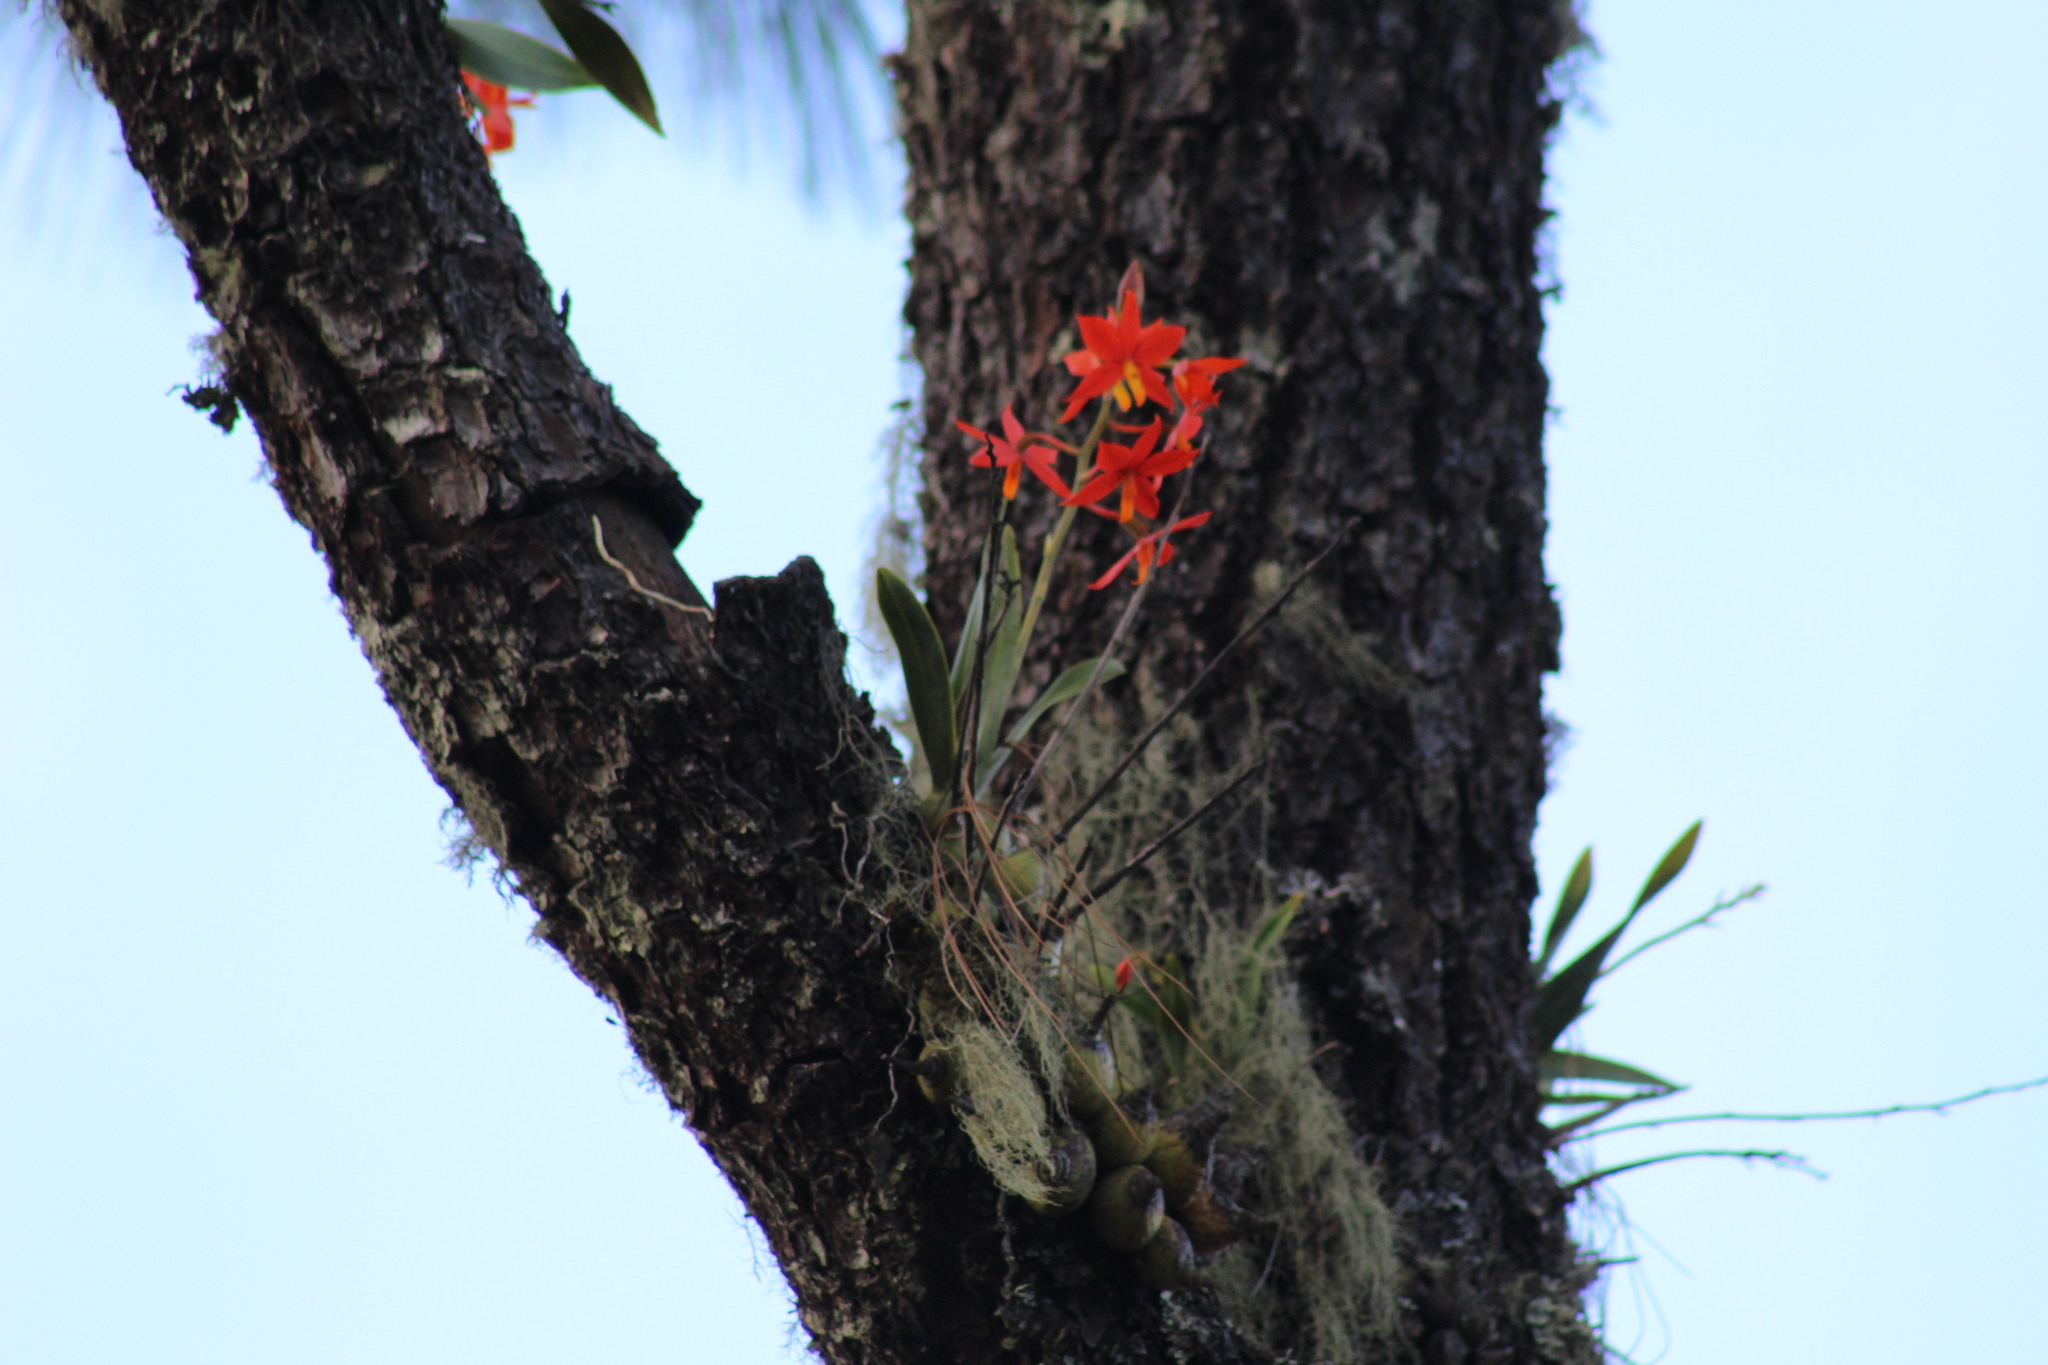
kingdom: Plantae
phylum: Tracheophyta
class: Liliopsida
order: Asparagales
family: Orchidaceae
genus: Prosthechea
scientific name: Prosthechea vitellina
